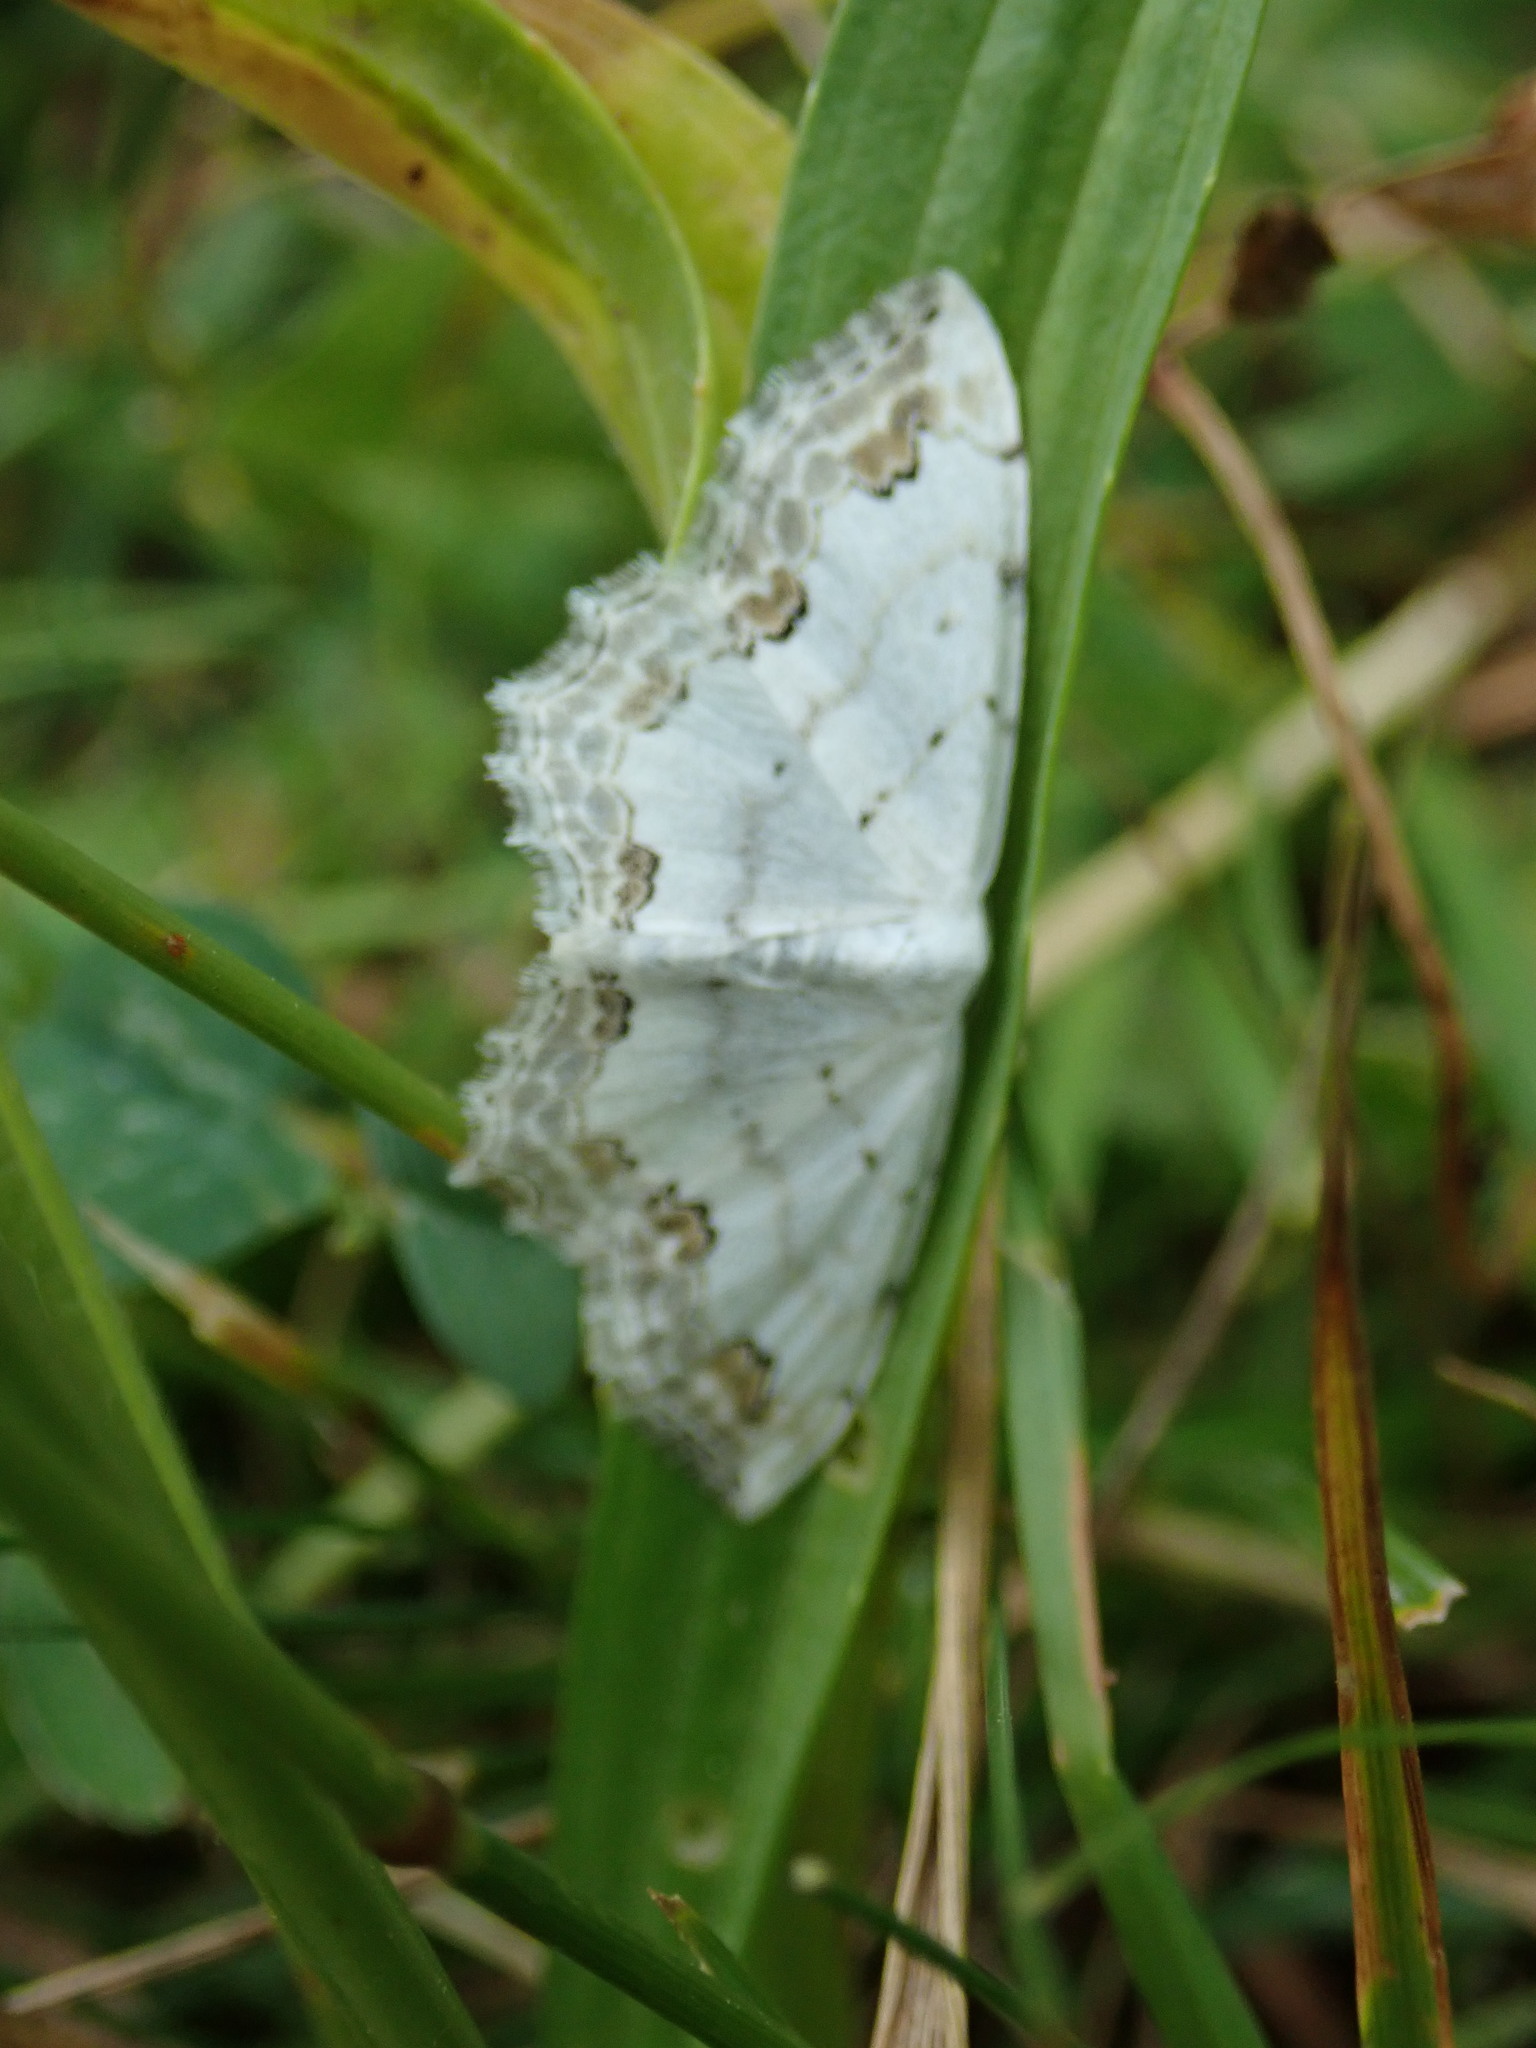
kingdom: Animalia
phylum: Arthropoda
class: Insecta
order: Lepidoptera
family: Geometridae
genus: Scopula
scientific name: Scopula ornata
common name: Lace border
